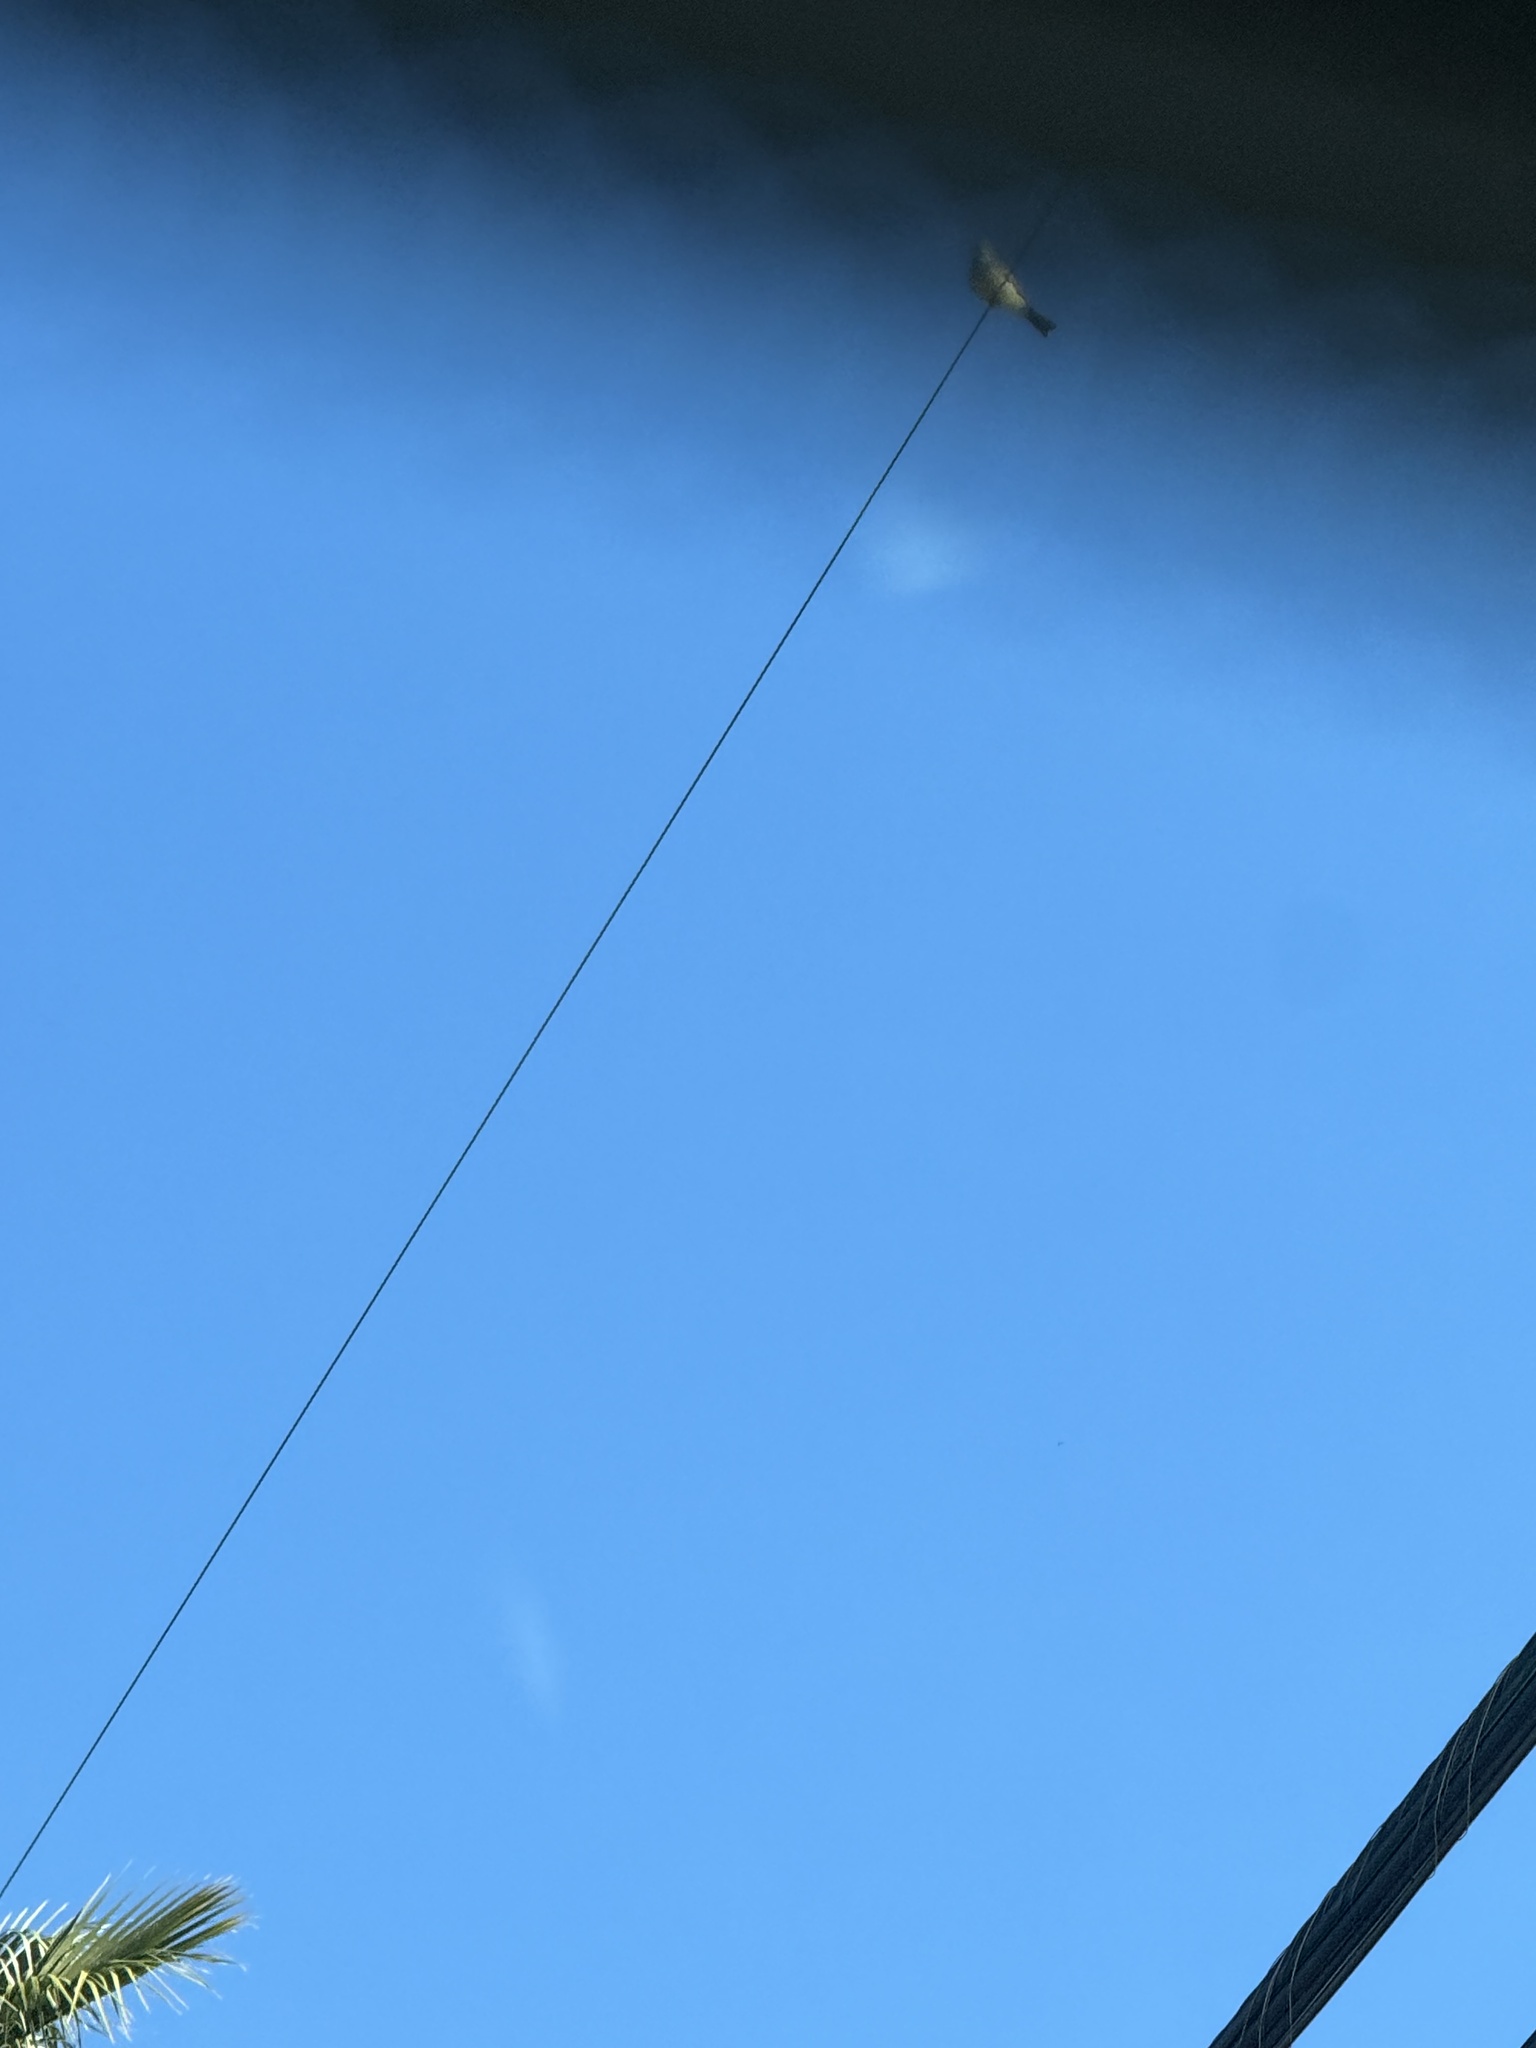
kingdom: Animalia
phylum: Chordata
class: Aves
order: Passeriformes
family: Tyrannidae
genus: Tyrannus
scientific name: Tyrannus vociferans
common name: Cassin's kingbird
